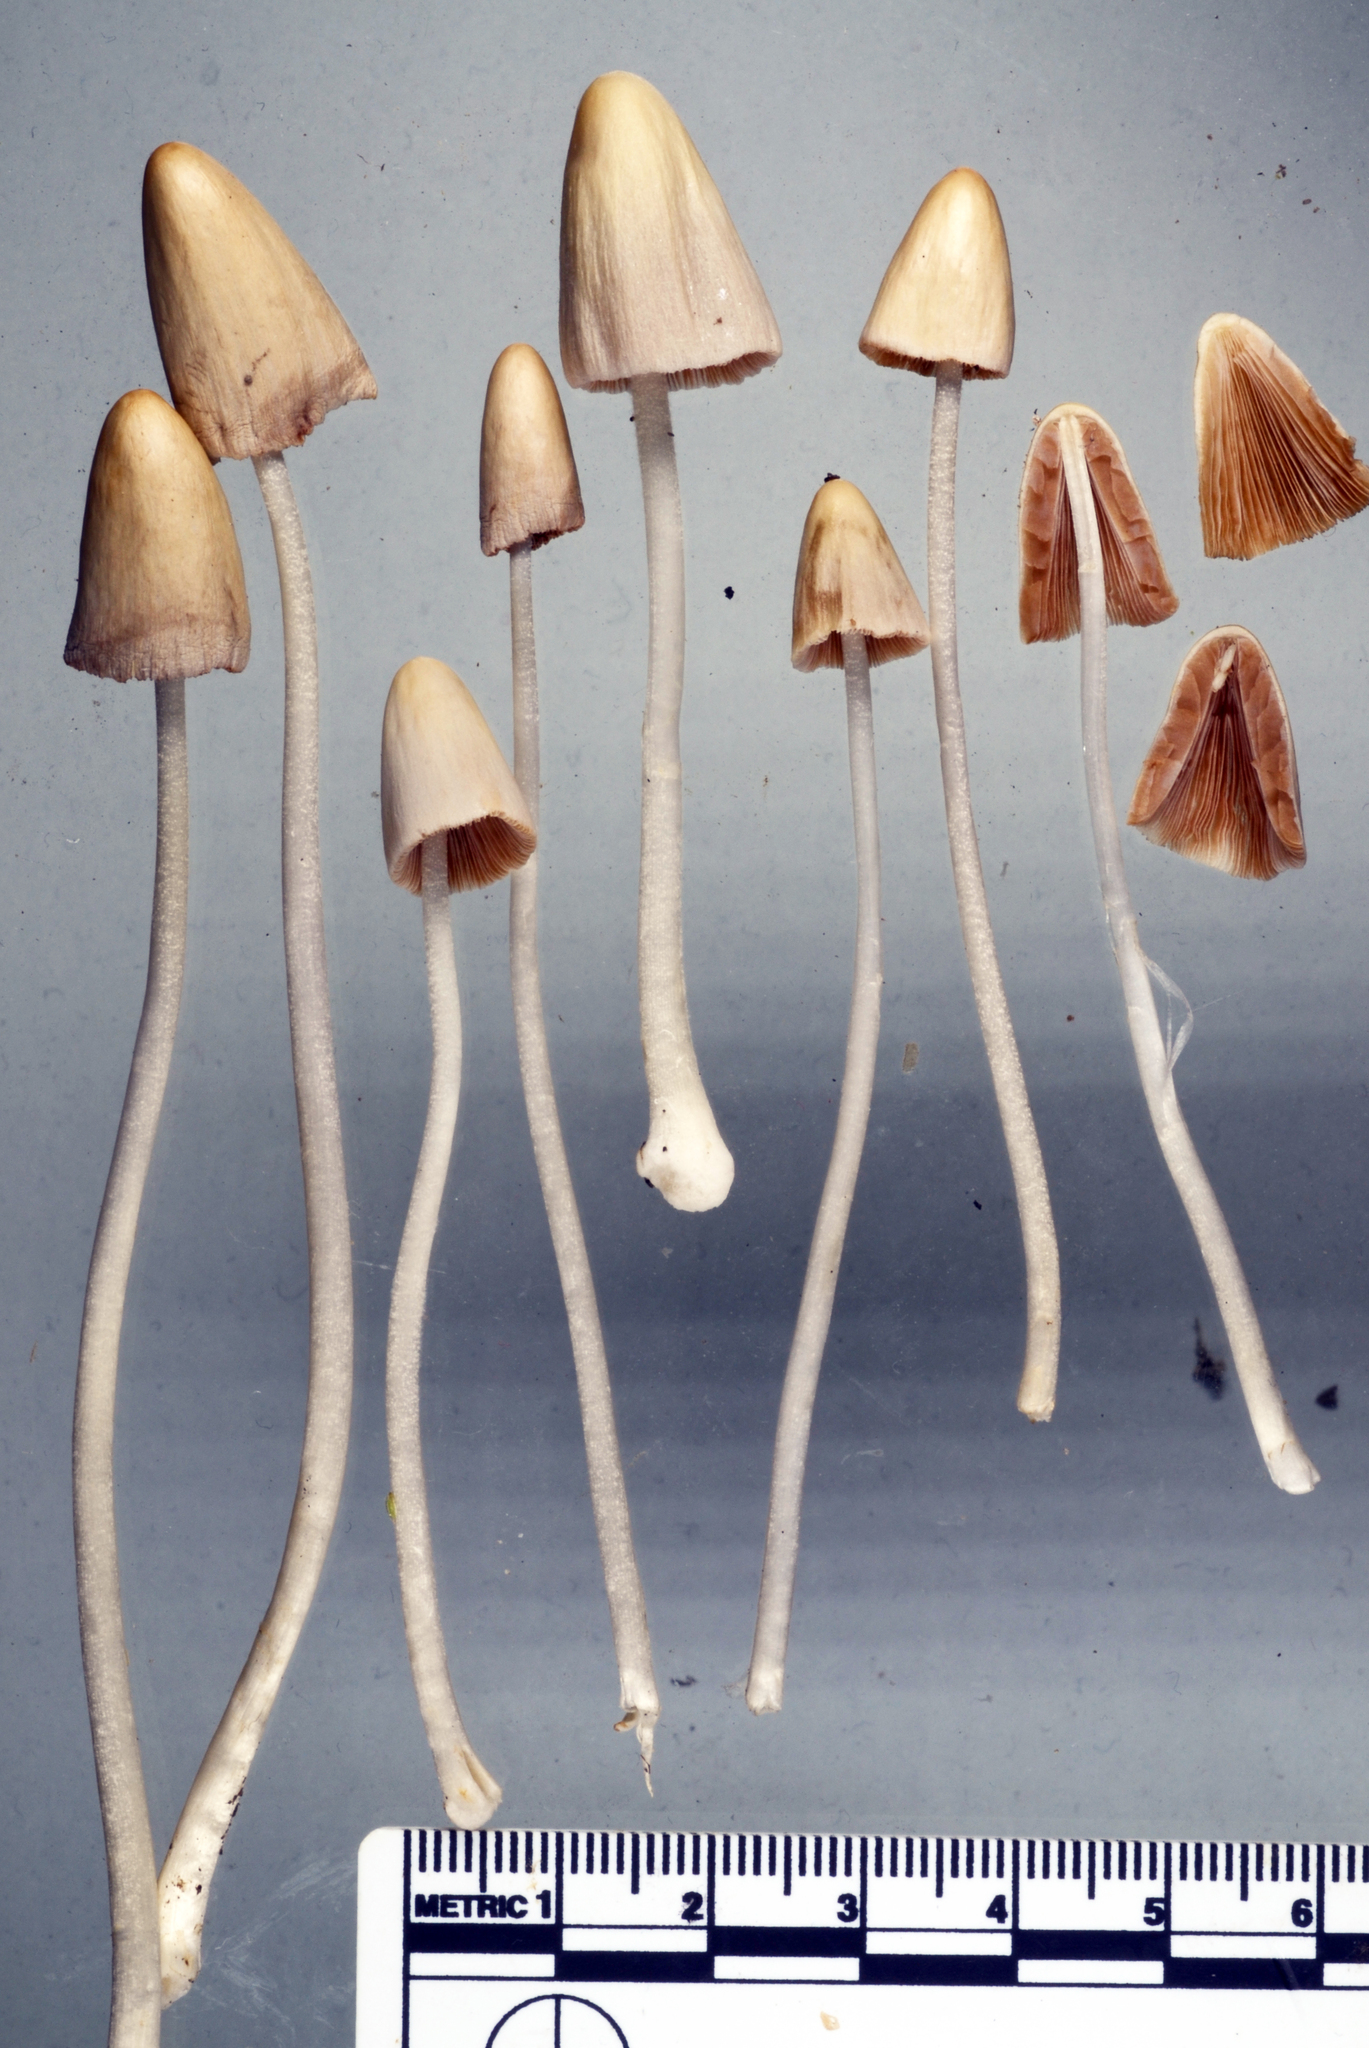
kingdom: Fungi
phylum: Basidiomycota
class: Agaricomycetes
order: Agaricales
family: Bolbitiaceae
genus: Conocybe
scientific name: Conocybe apala
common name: Milky conecap
